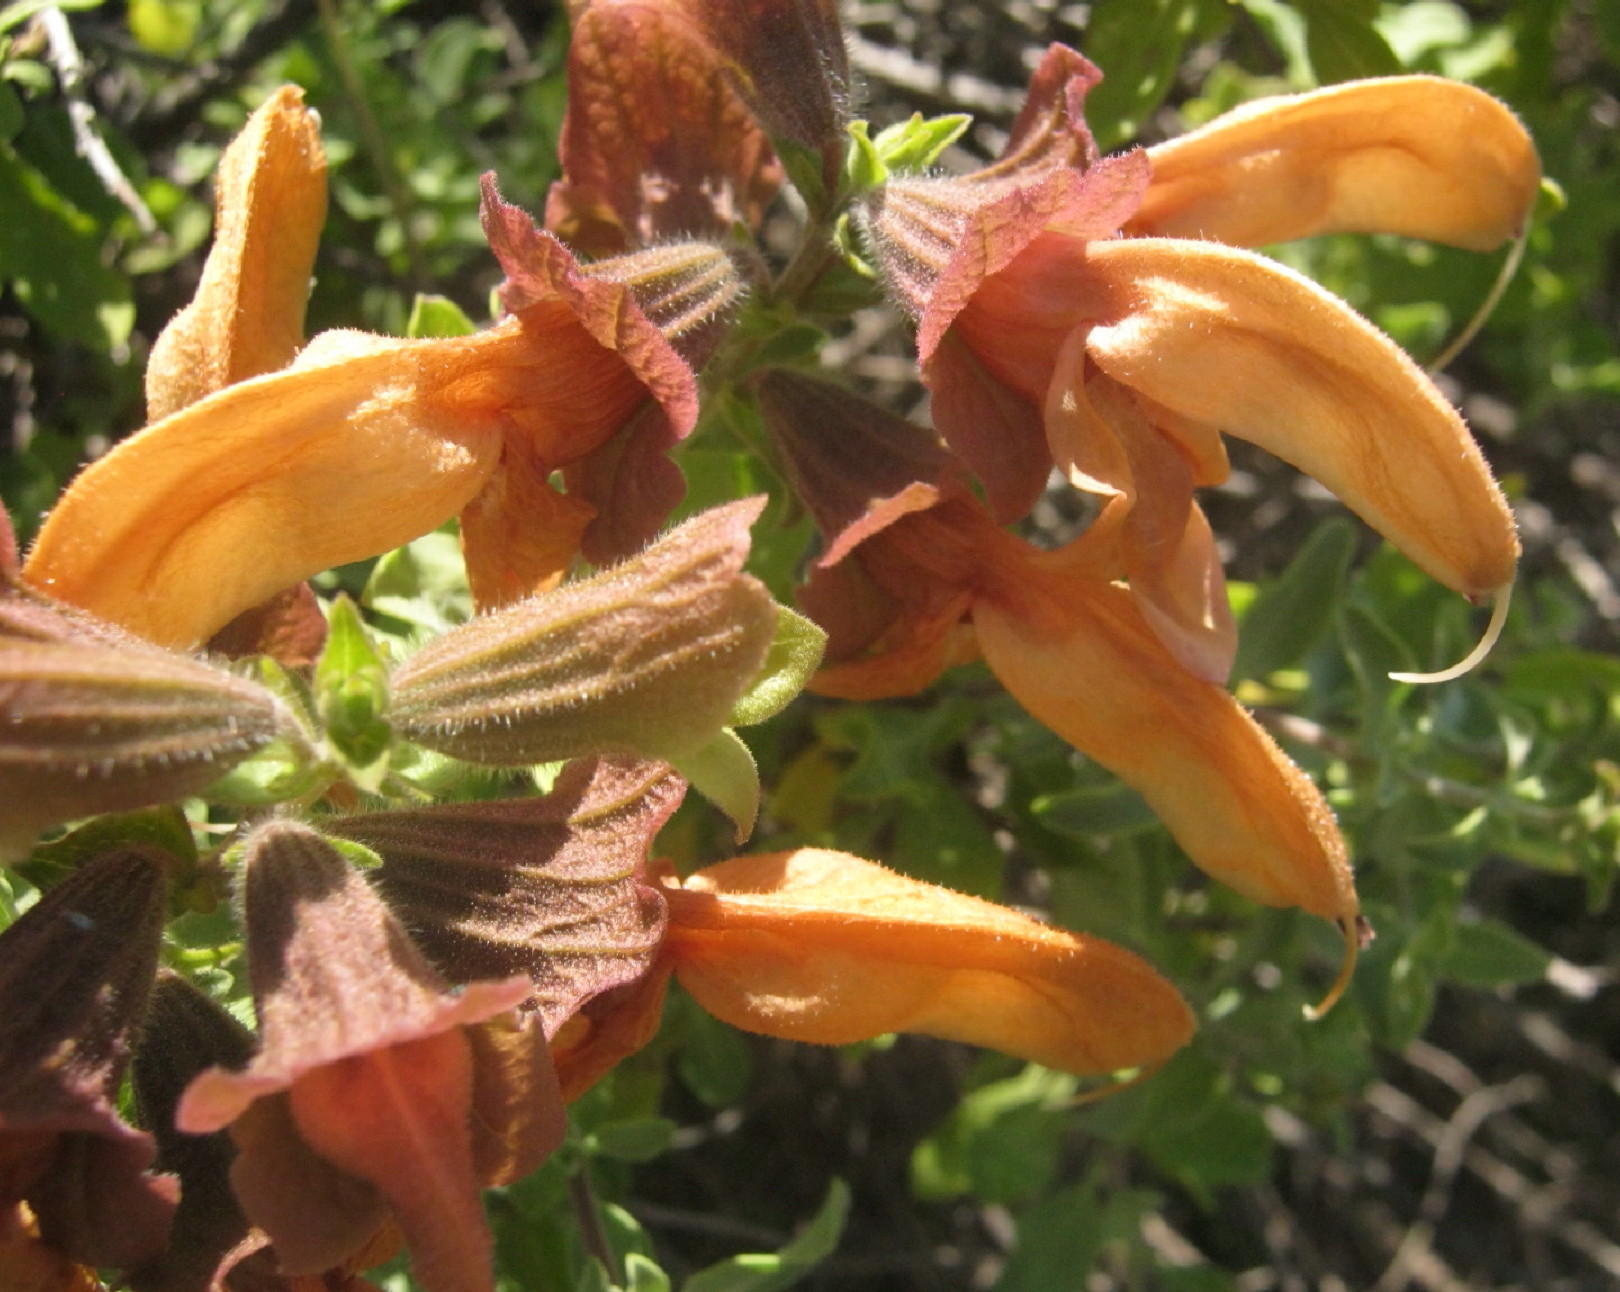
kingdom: Plantae
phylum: Tracheophyta
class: Magnoliopsida
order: Lamiales
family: Lamiaceae
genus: Salvia
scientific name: Salvia aurea
